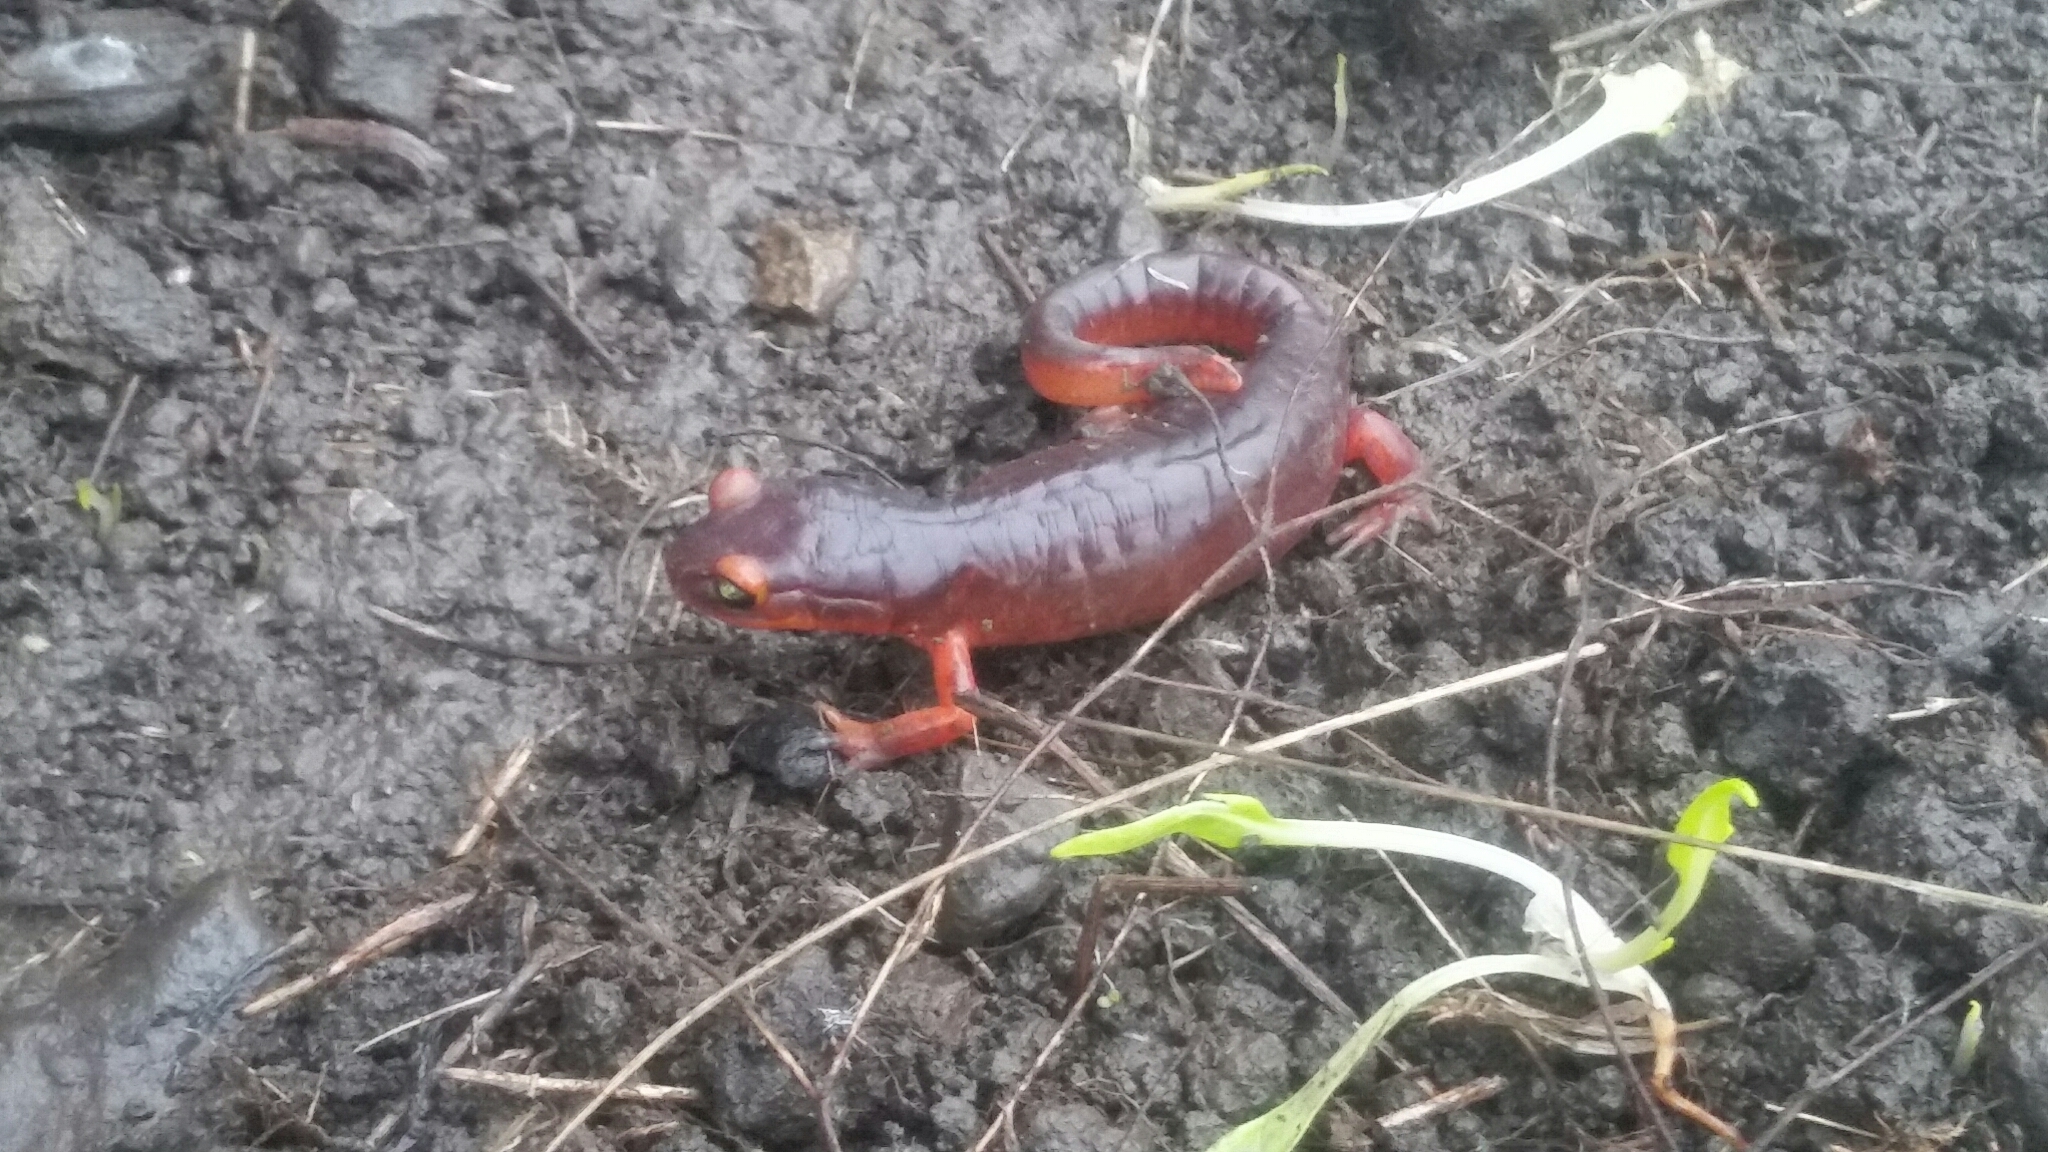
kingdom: Animalia
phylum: Chordata
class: Amphibia
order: Caudata
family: Plethodontidae
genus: Ensatina
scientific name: Ensatina eschscholtzii
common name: Ensatina
